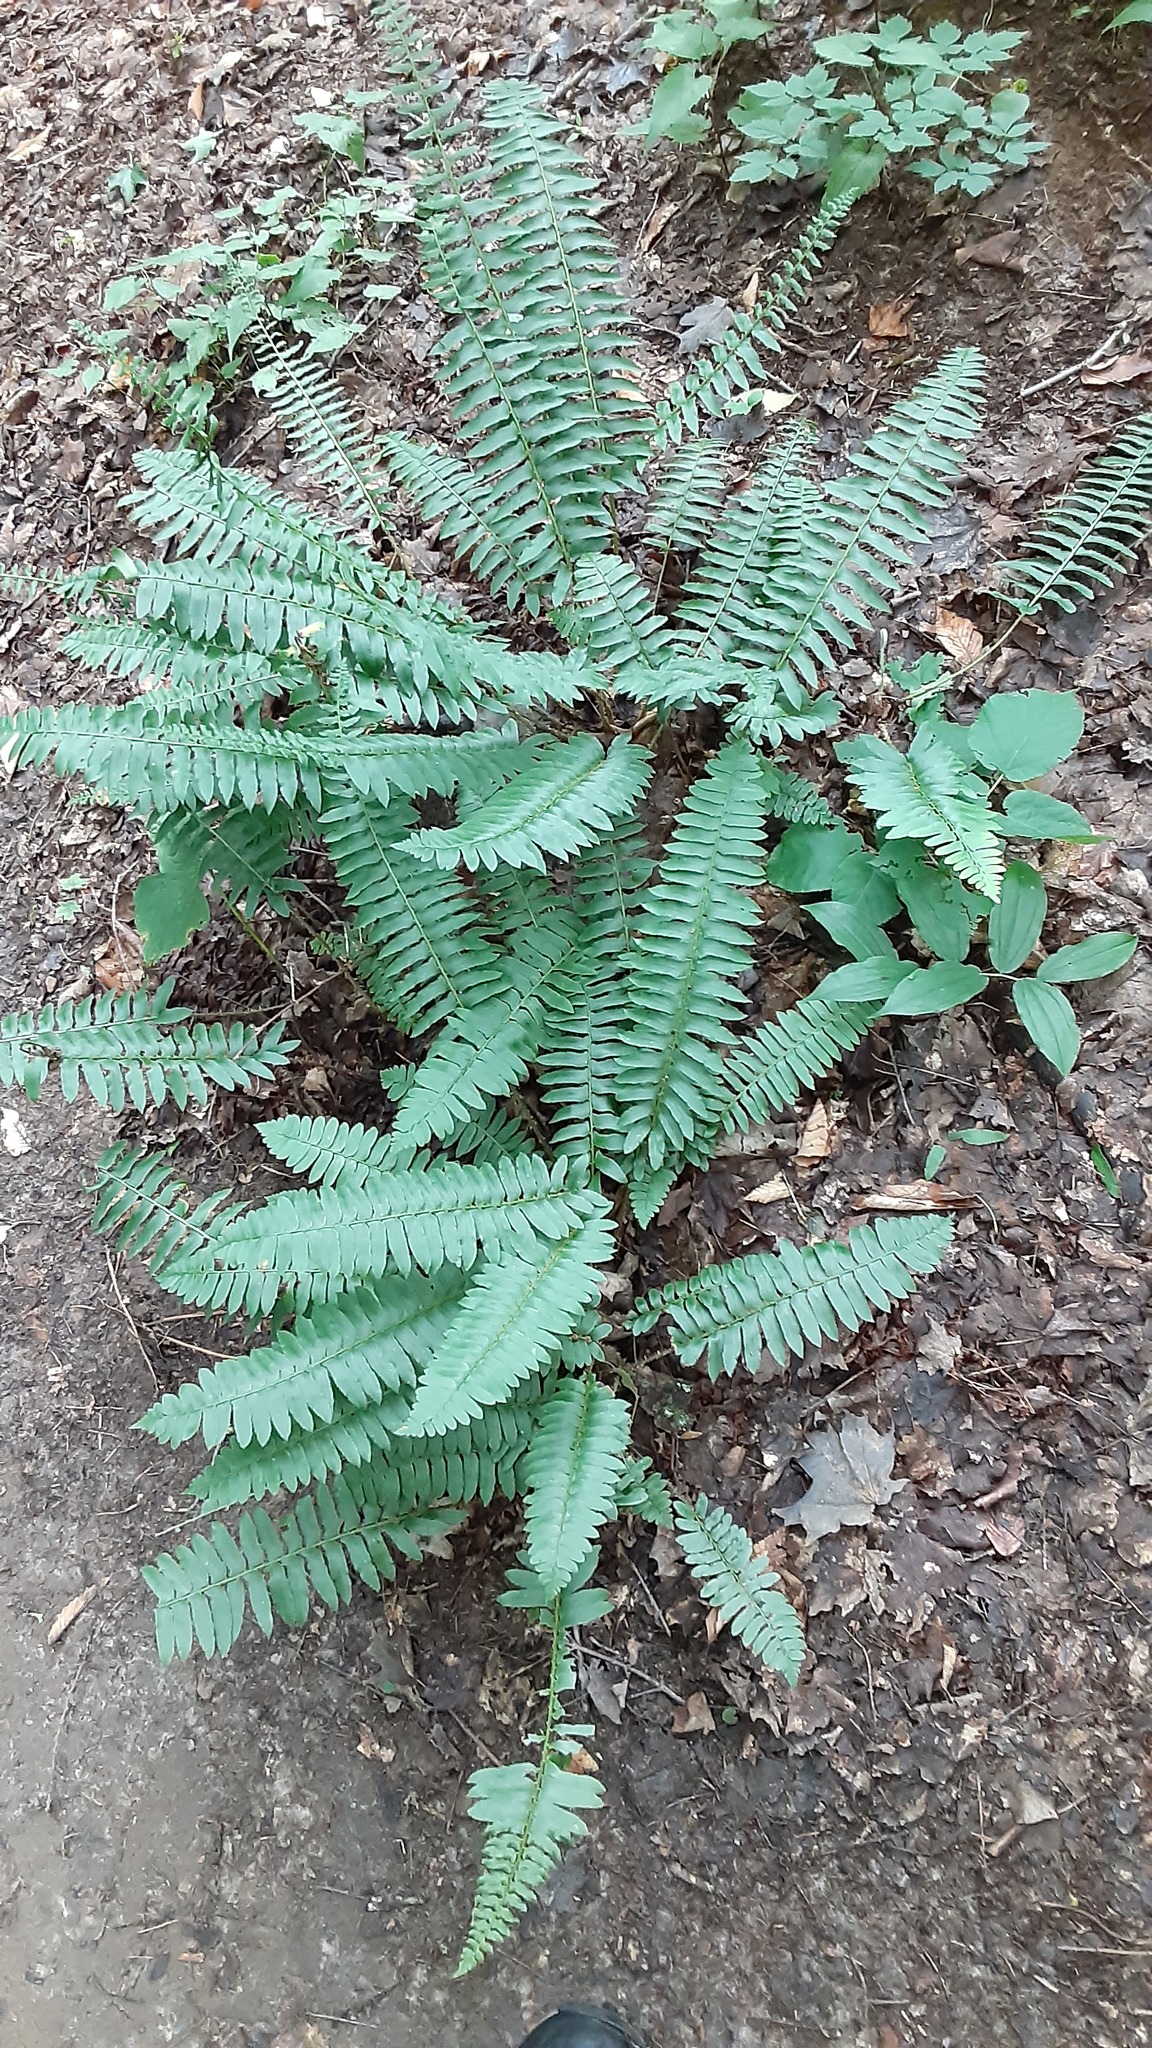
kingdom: Plantae
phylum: Tracheophyta
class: Polypodiopsida
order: Polypodiales
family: Dryopteridaceae
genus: Polystichum
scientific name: Polystichum acrostichoides
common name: Christmas fern
